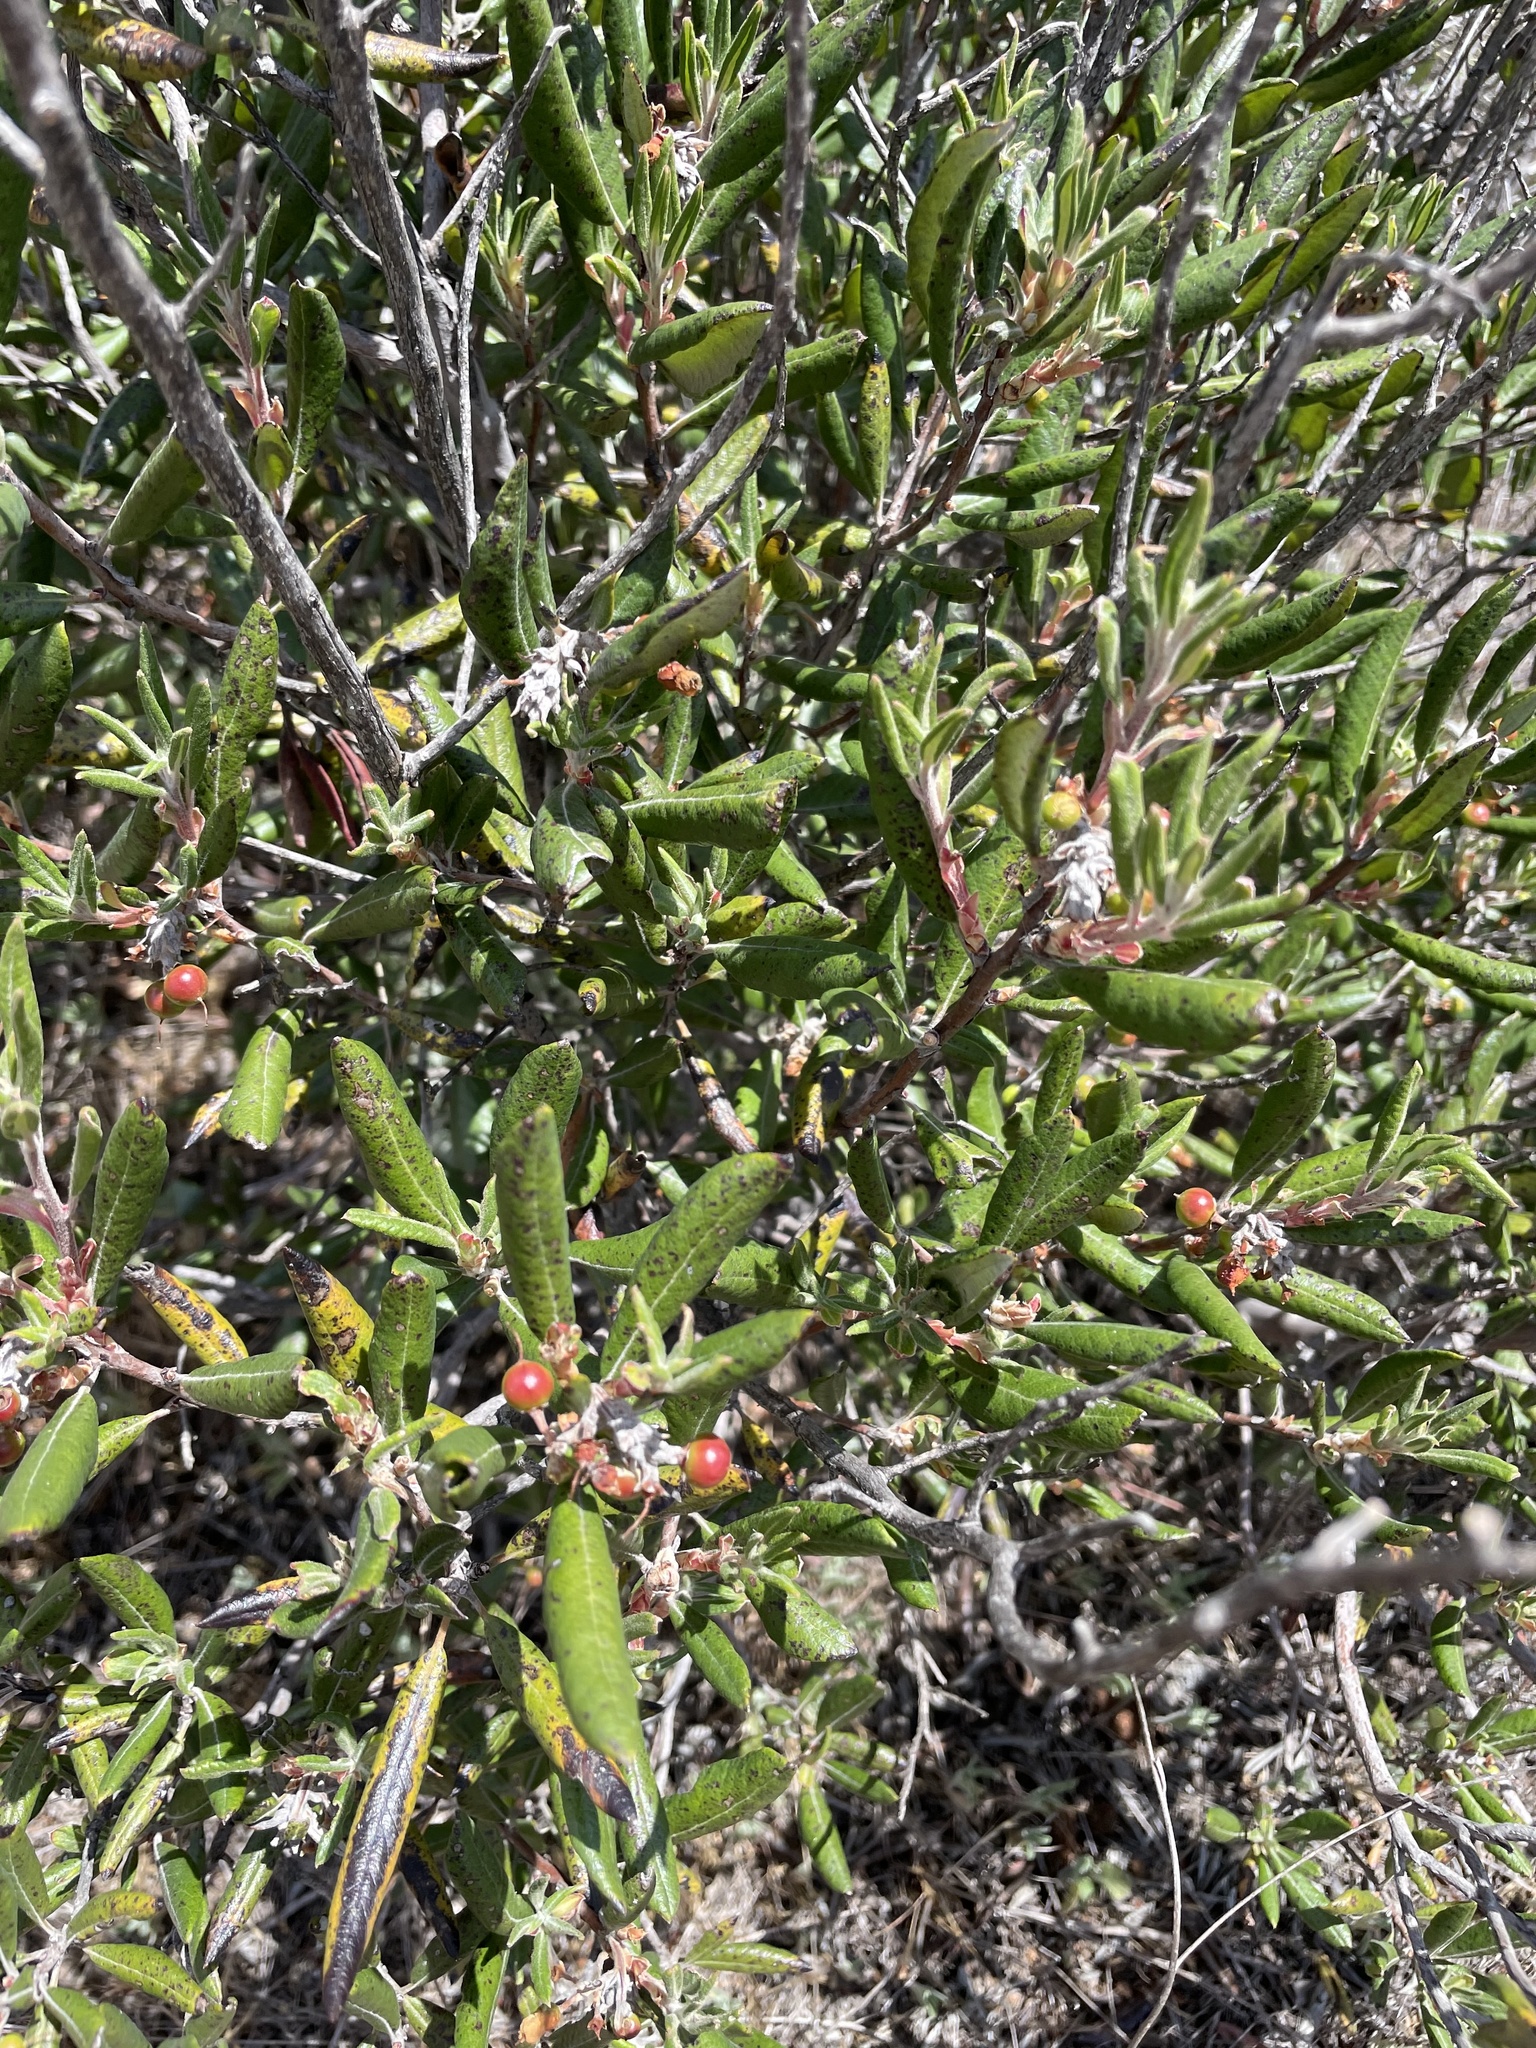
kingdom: Plantae
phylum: Tracheophyta
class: Magnoliopsida
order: Ericales
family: Ericaceae
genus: Arctostaphylos
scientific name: Arctostaphylos bicolor
